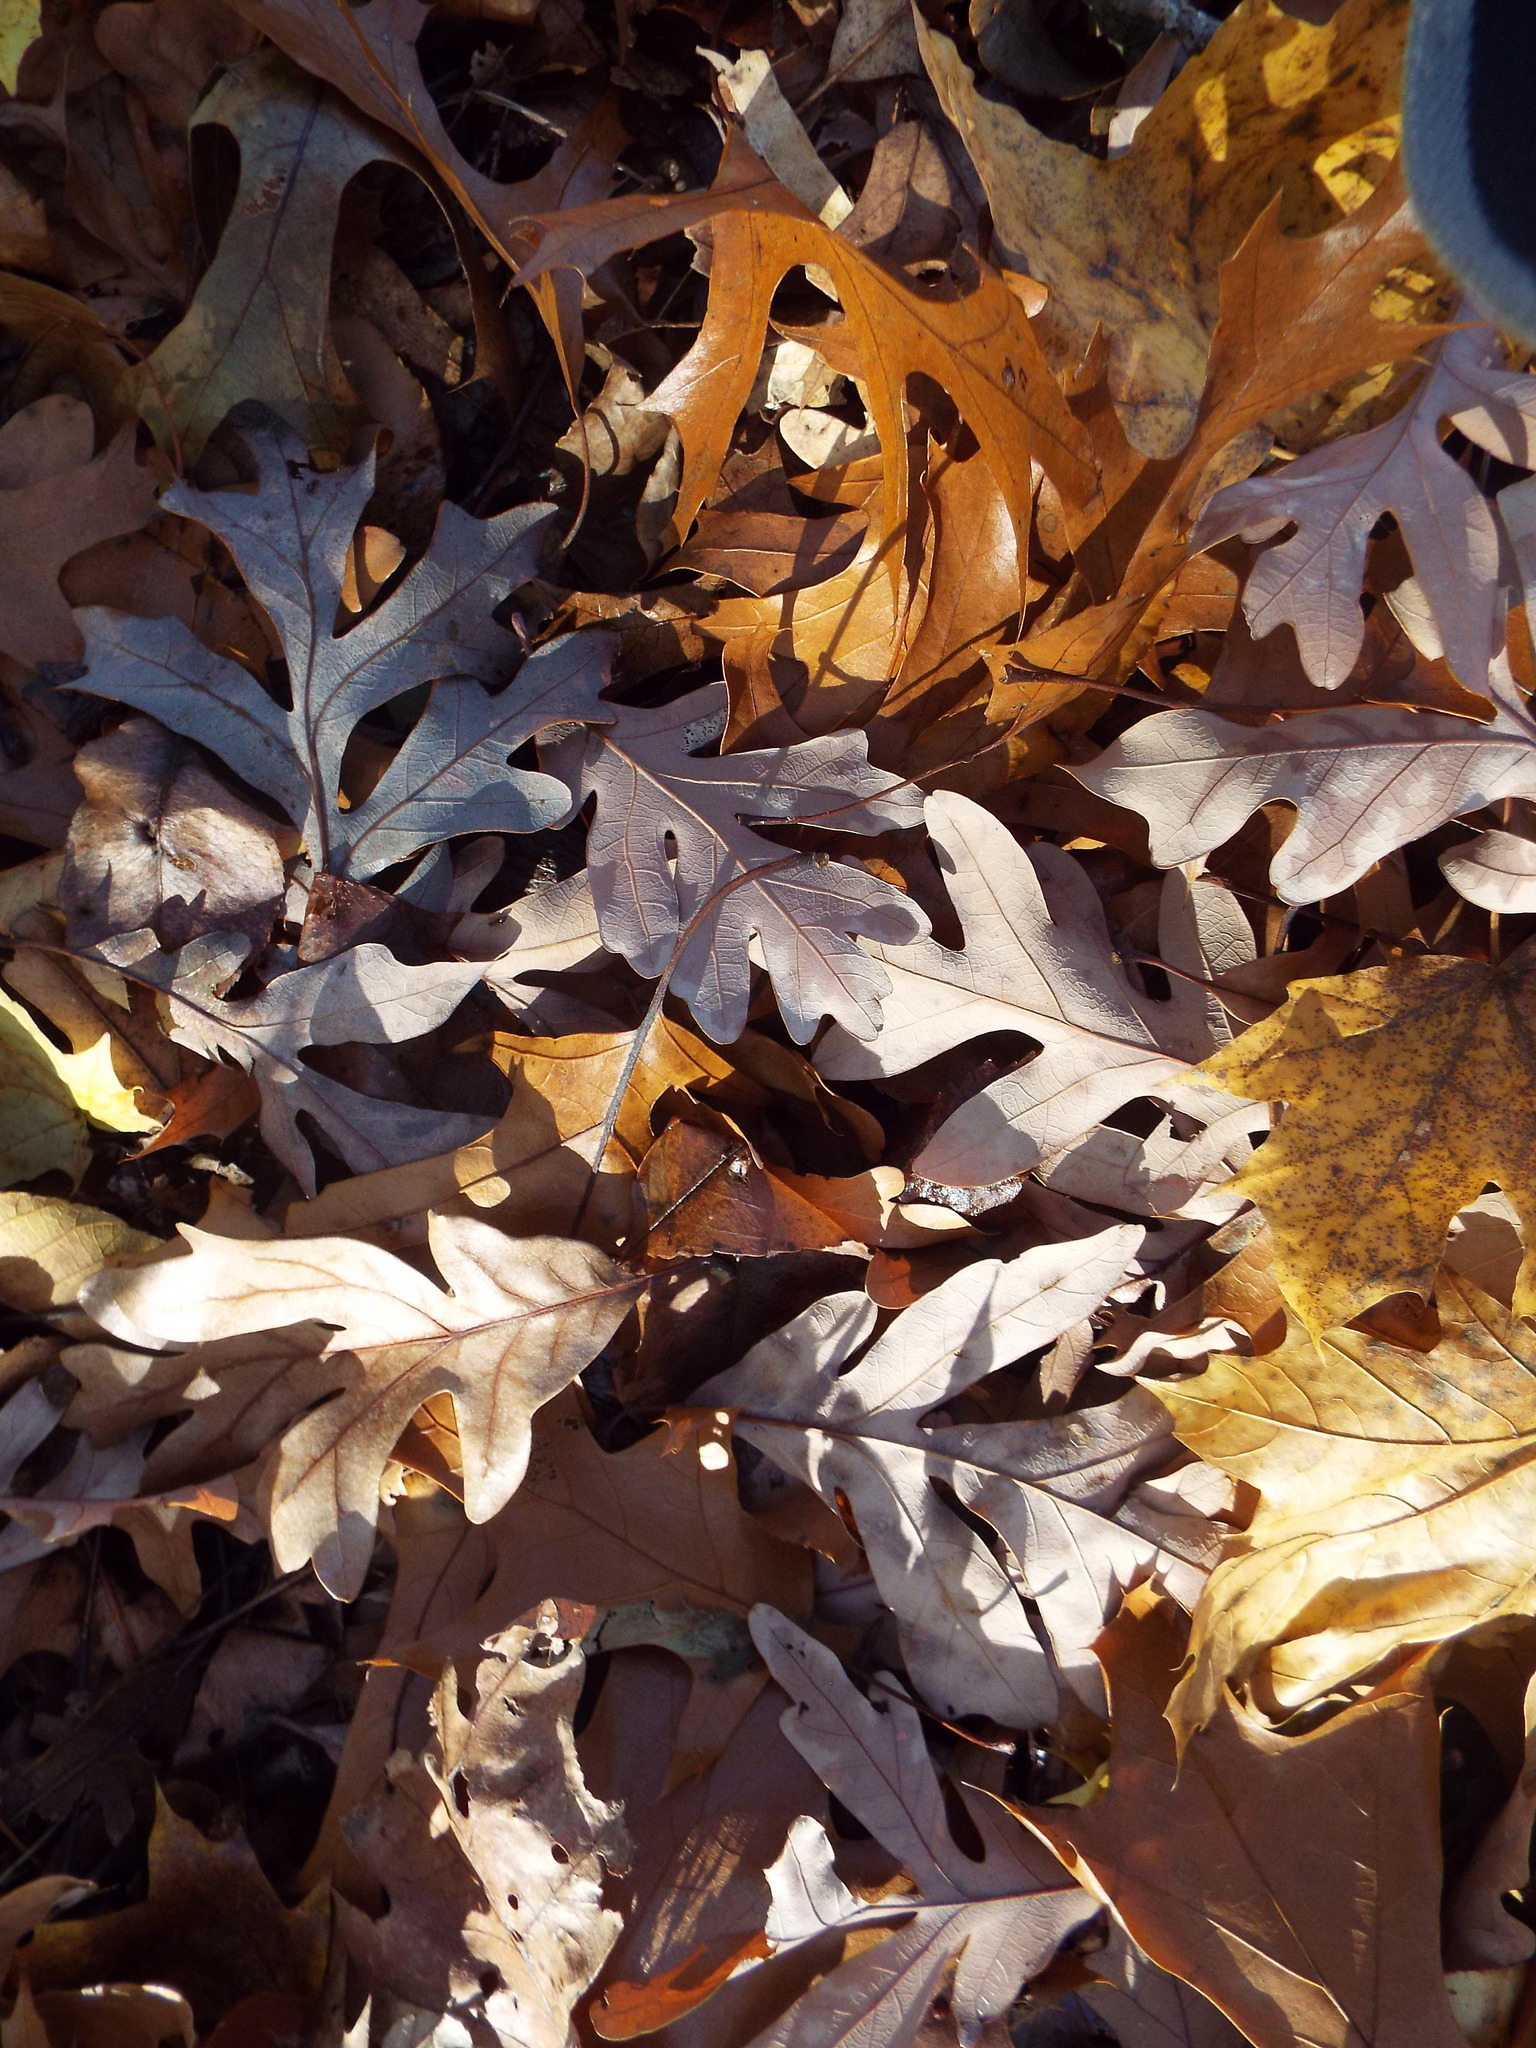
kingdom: Plantae
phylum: Tracheophyta
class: Magnoliopsida
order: Fagales
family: Fagaceae
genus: Quercus
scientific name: Quercus alba
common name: White oak
